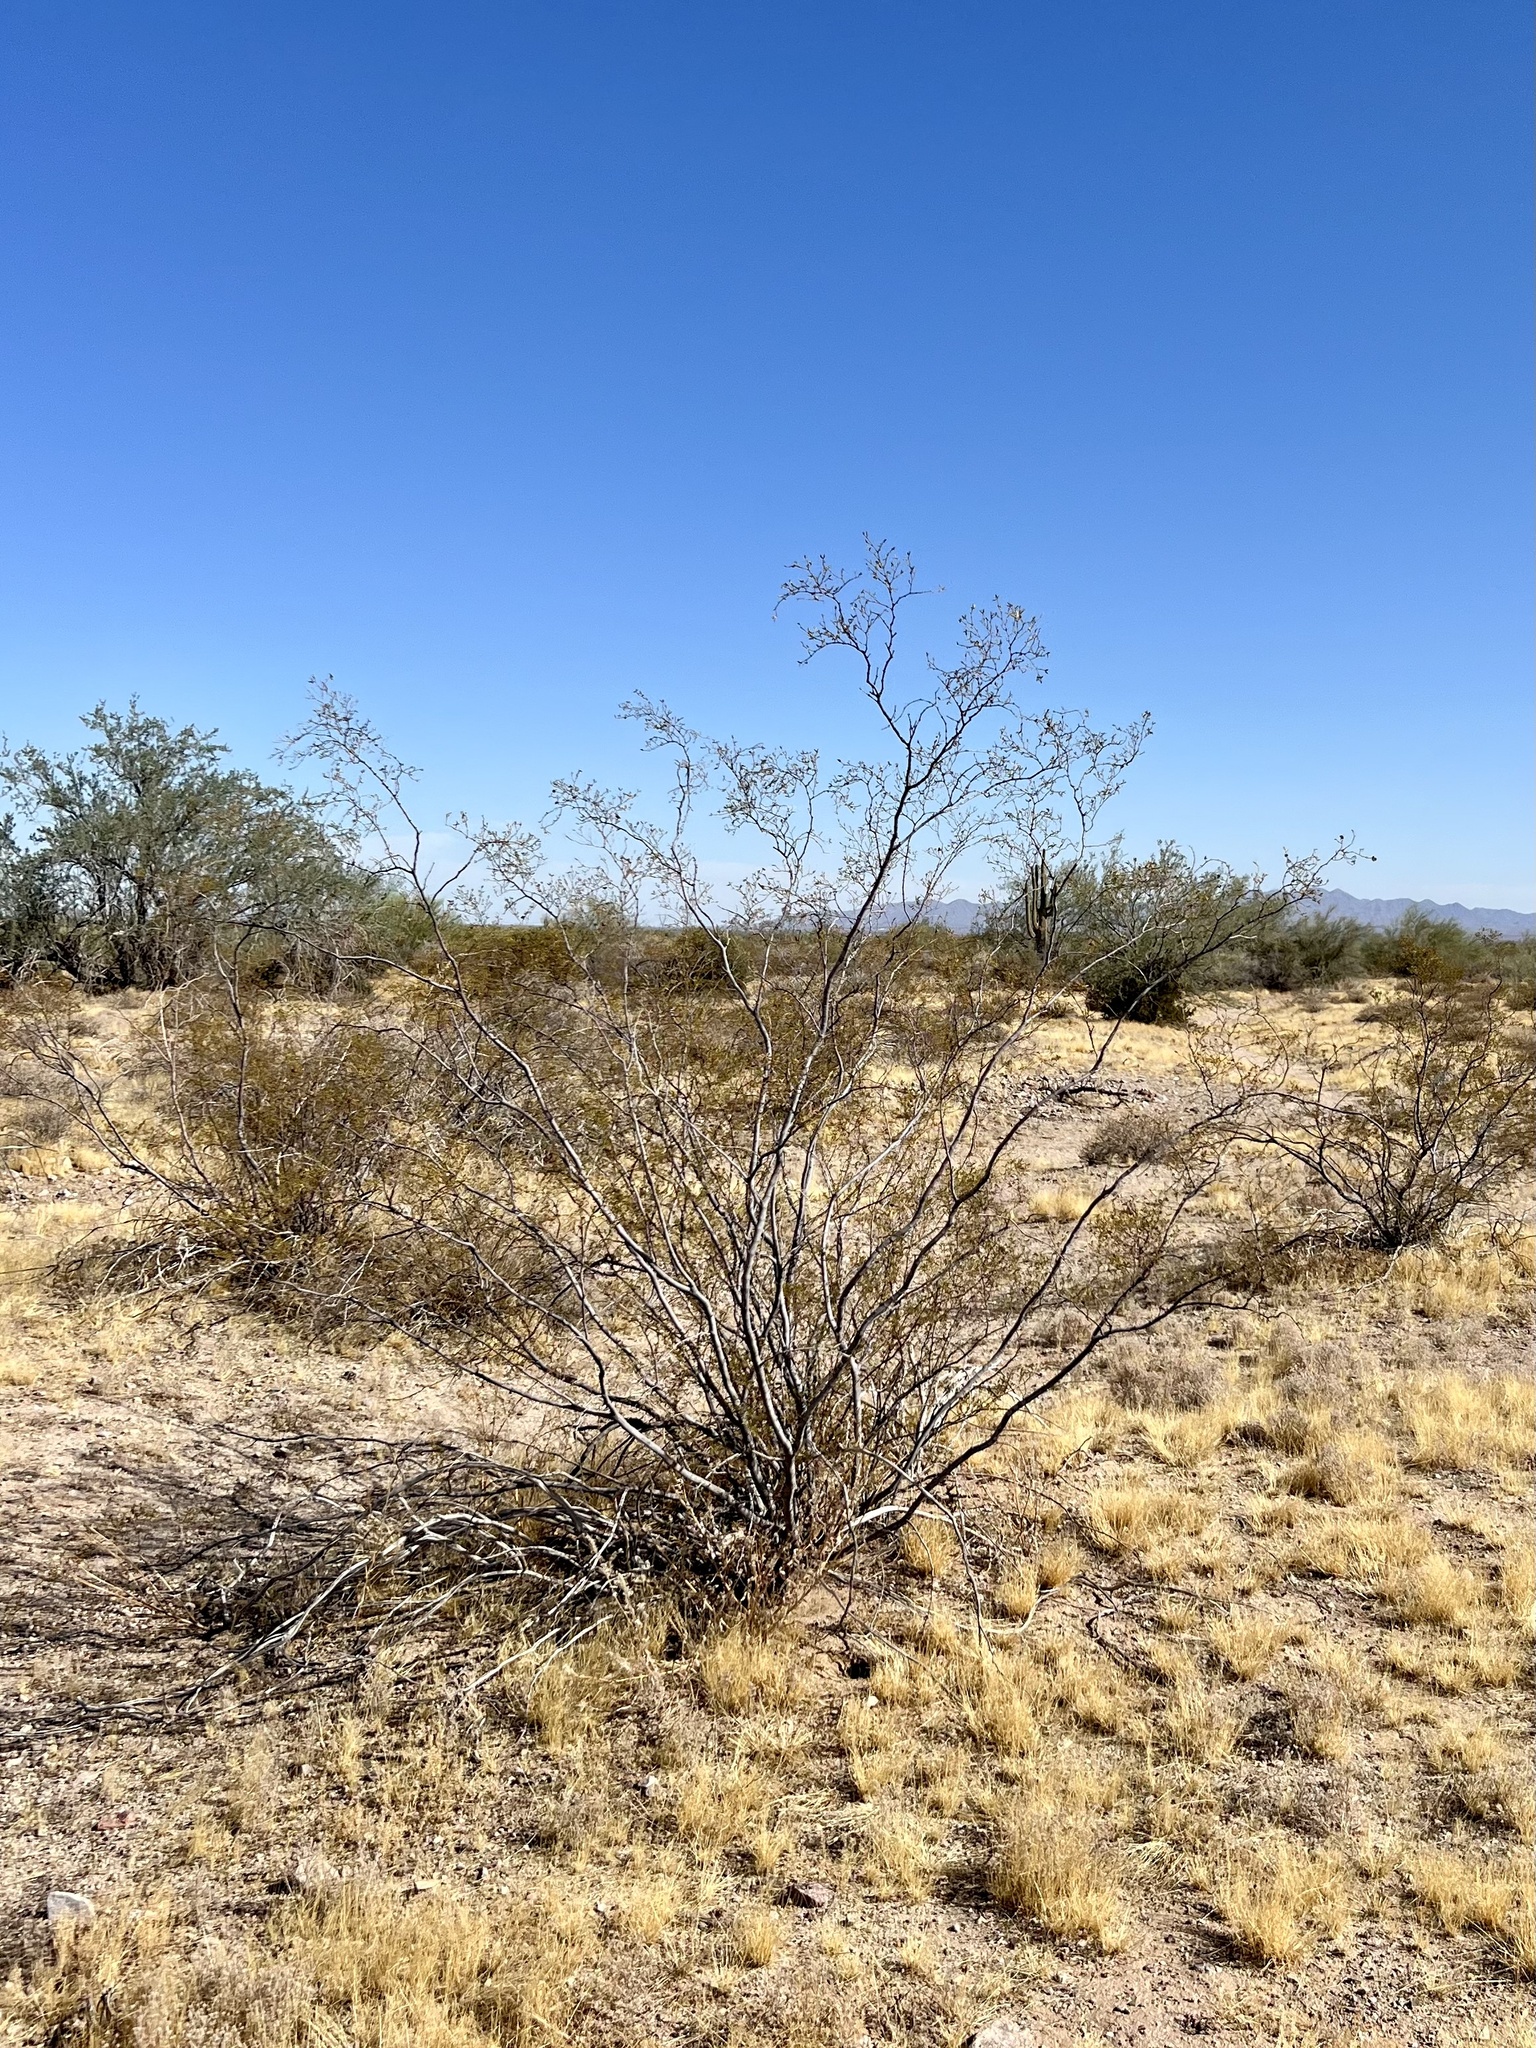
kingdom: Plantae
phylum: Tracheophyta
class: Magnoliopsida
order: Zygophyllales
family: Zygophyllaceae
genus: Larrea
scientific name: Larrea tridentata
